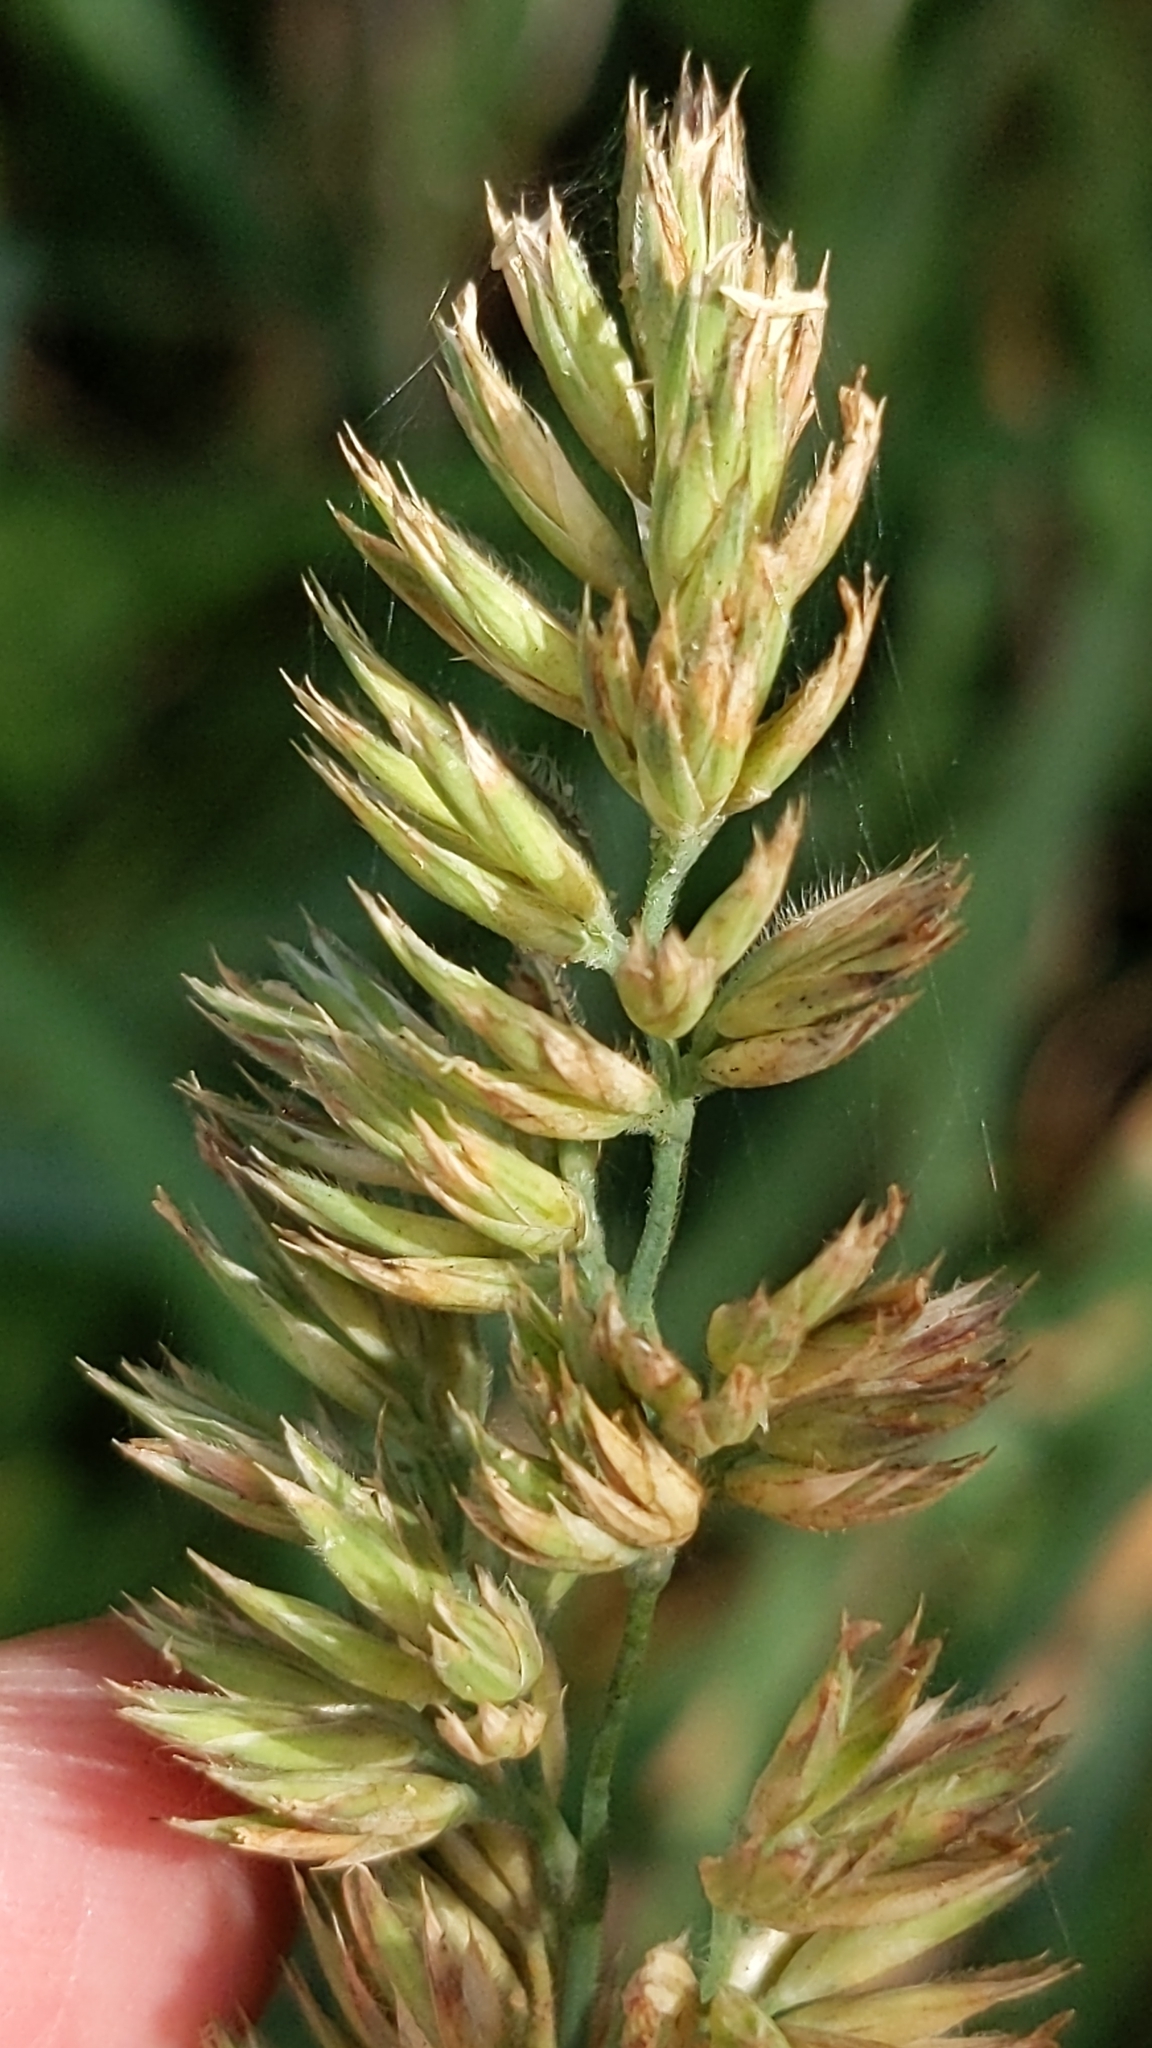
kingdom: Plantae
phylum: Tracheophyta
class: Liliopsida
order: Poales
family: Poaceae
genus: Dactylis
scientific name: Dactylis glomerata
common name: Orchardgrass
